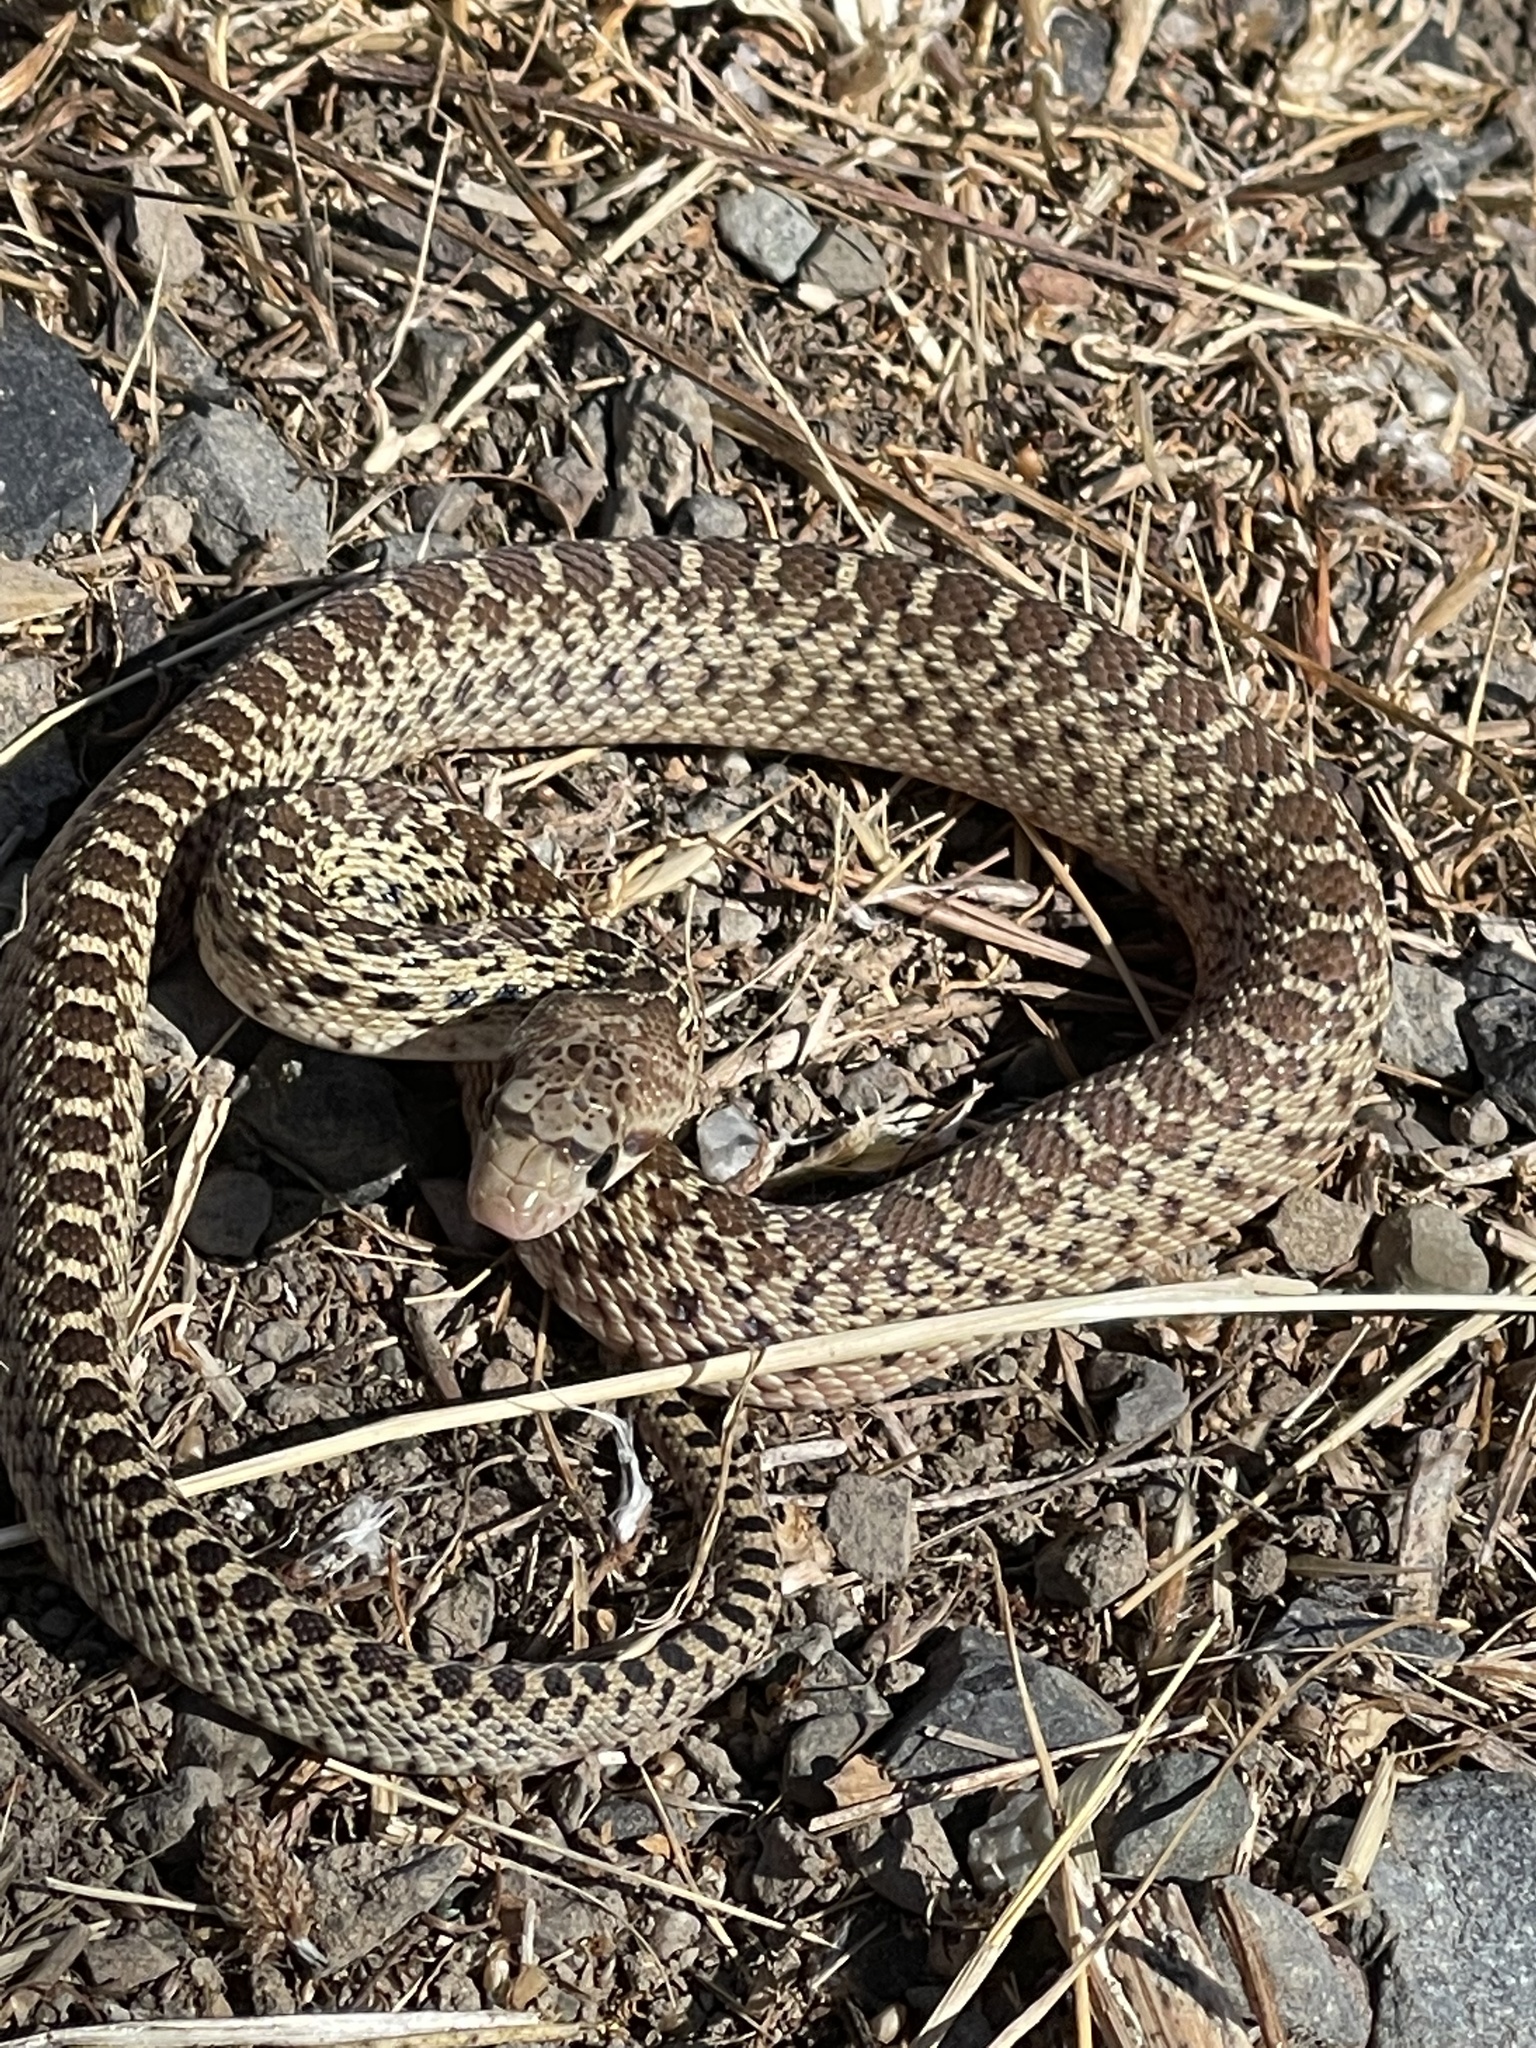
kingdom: Animalia
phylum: Chordata
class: Squamata
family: Colubridae
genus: Pituophis
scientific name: Pituophis catenifer
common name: Gopher snake
